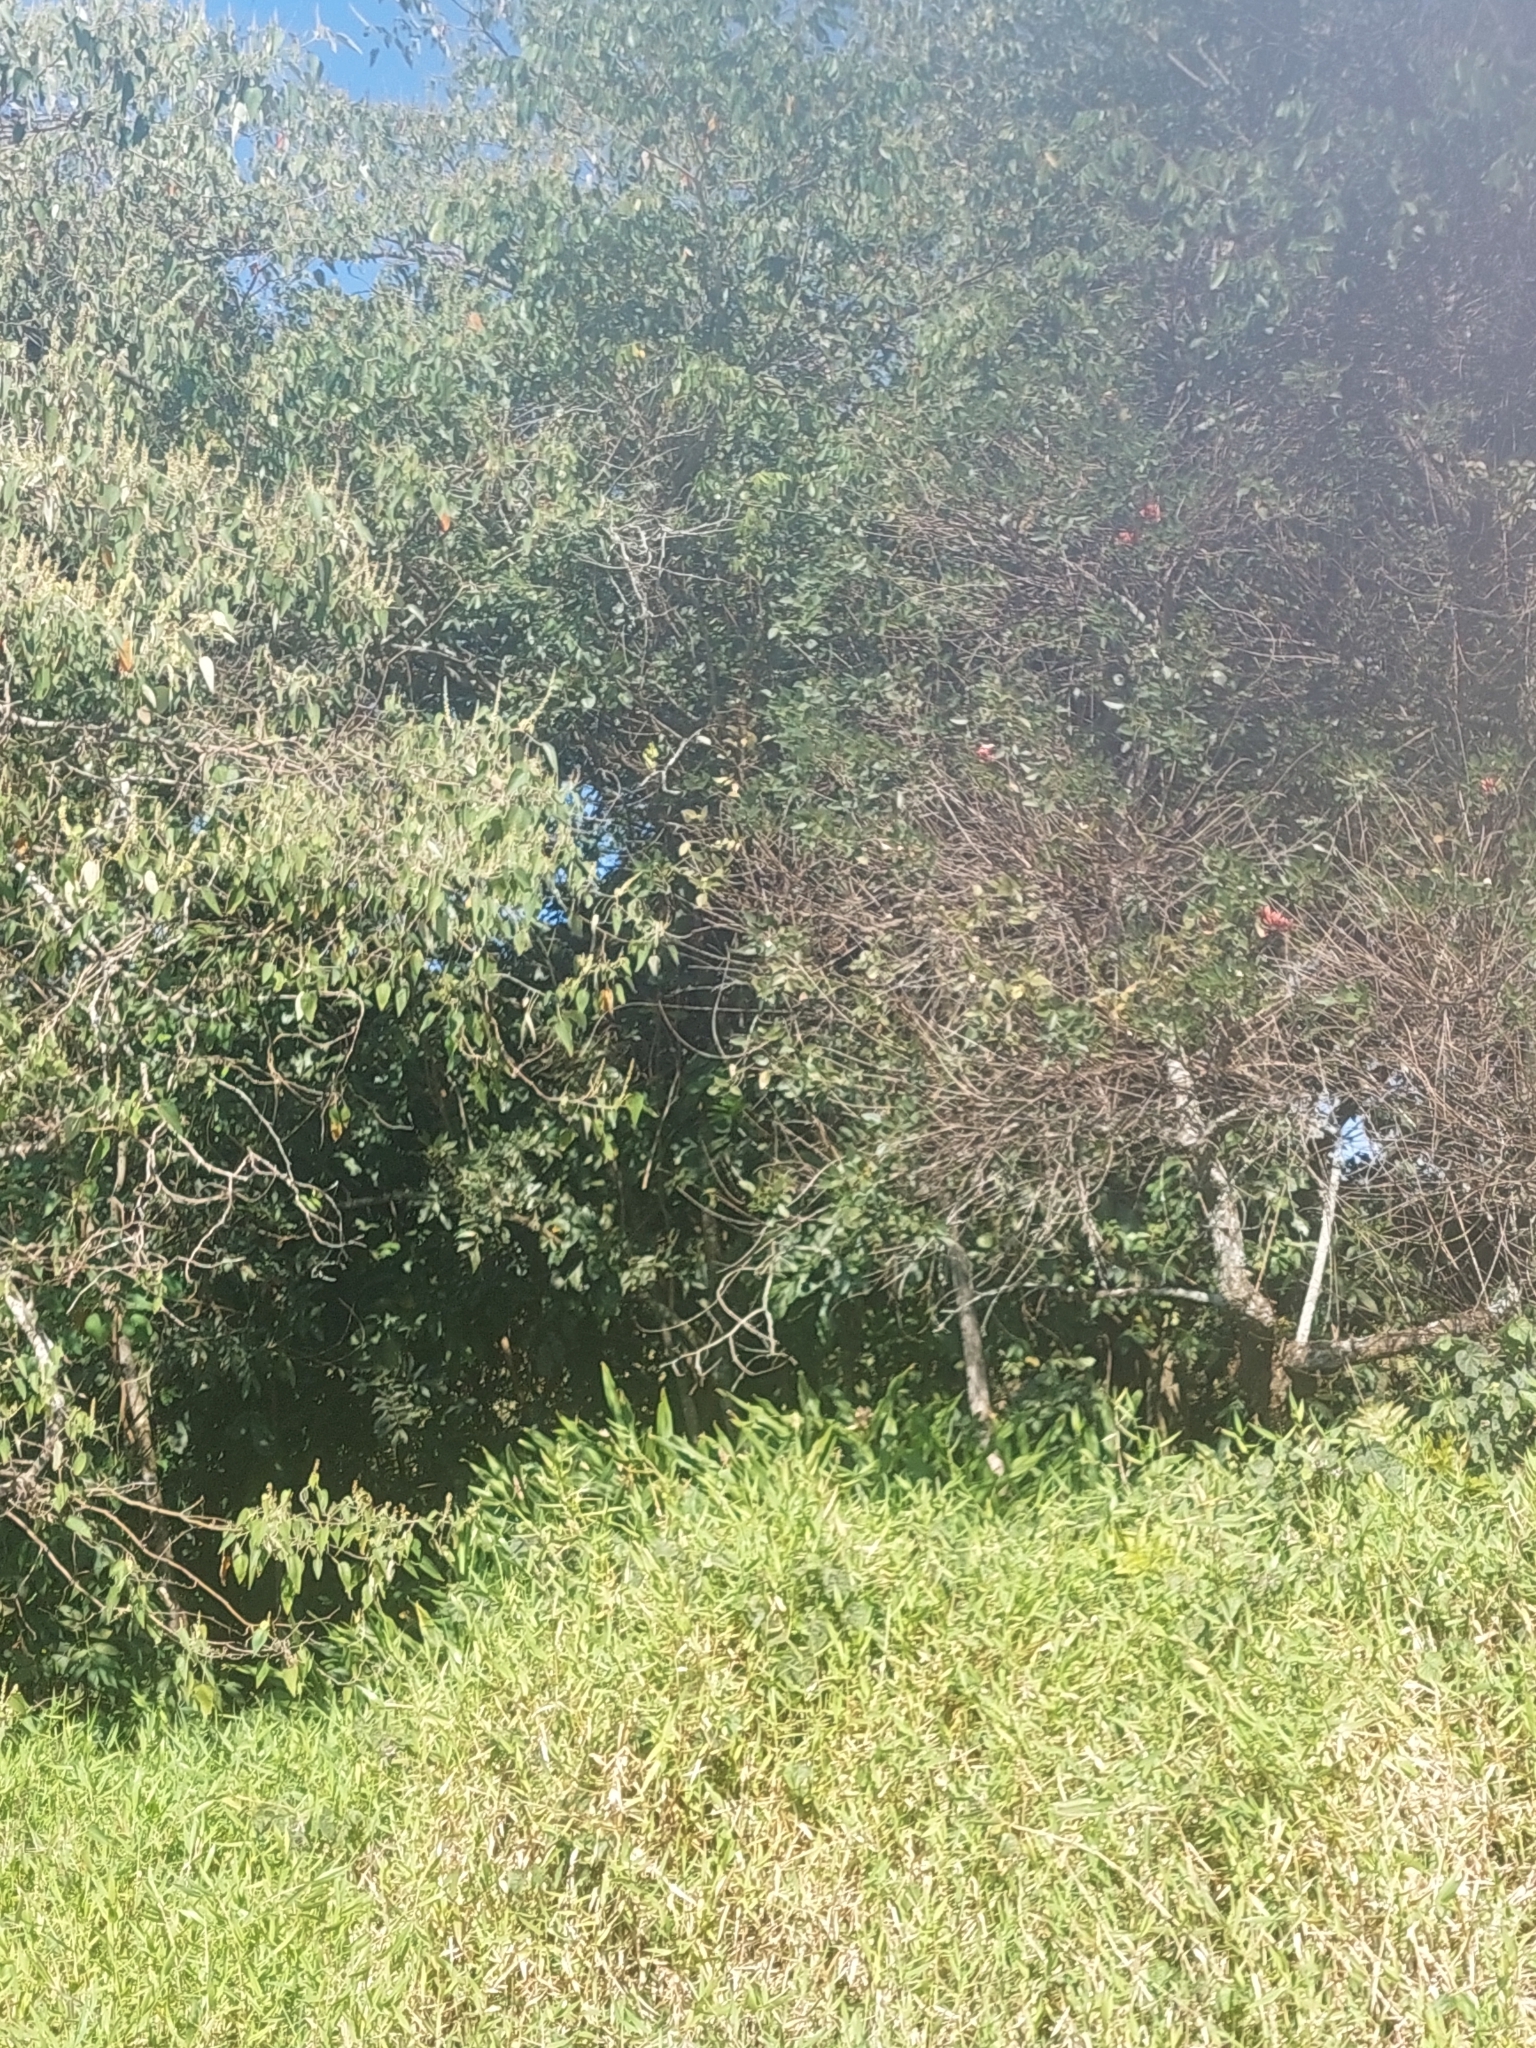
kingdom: Plantae
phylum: Tracheophyta
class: Liliopsida
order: Zingiberales
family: Zingiberaceae
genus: Hedychium
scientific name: Hedychium coronarium
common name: White garland-lily
